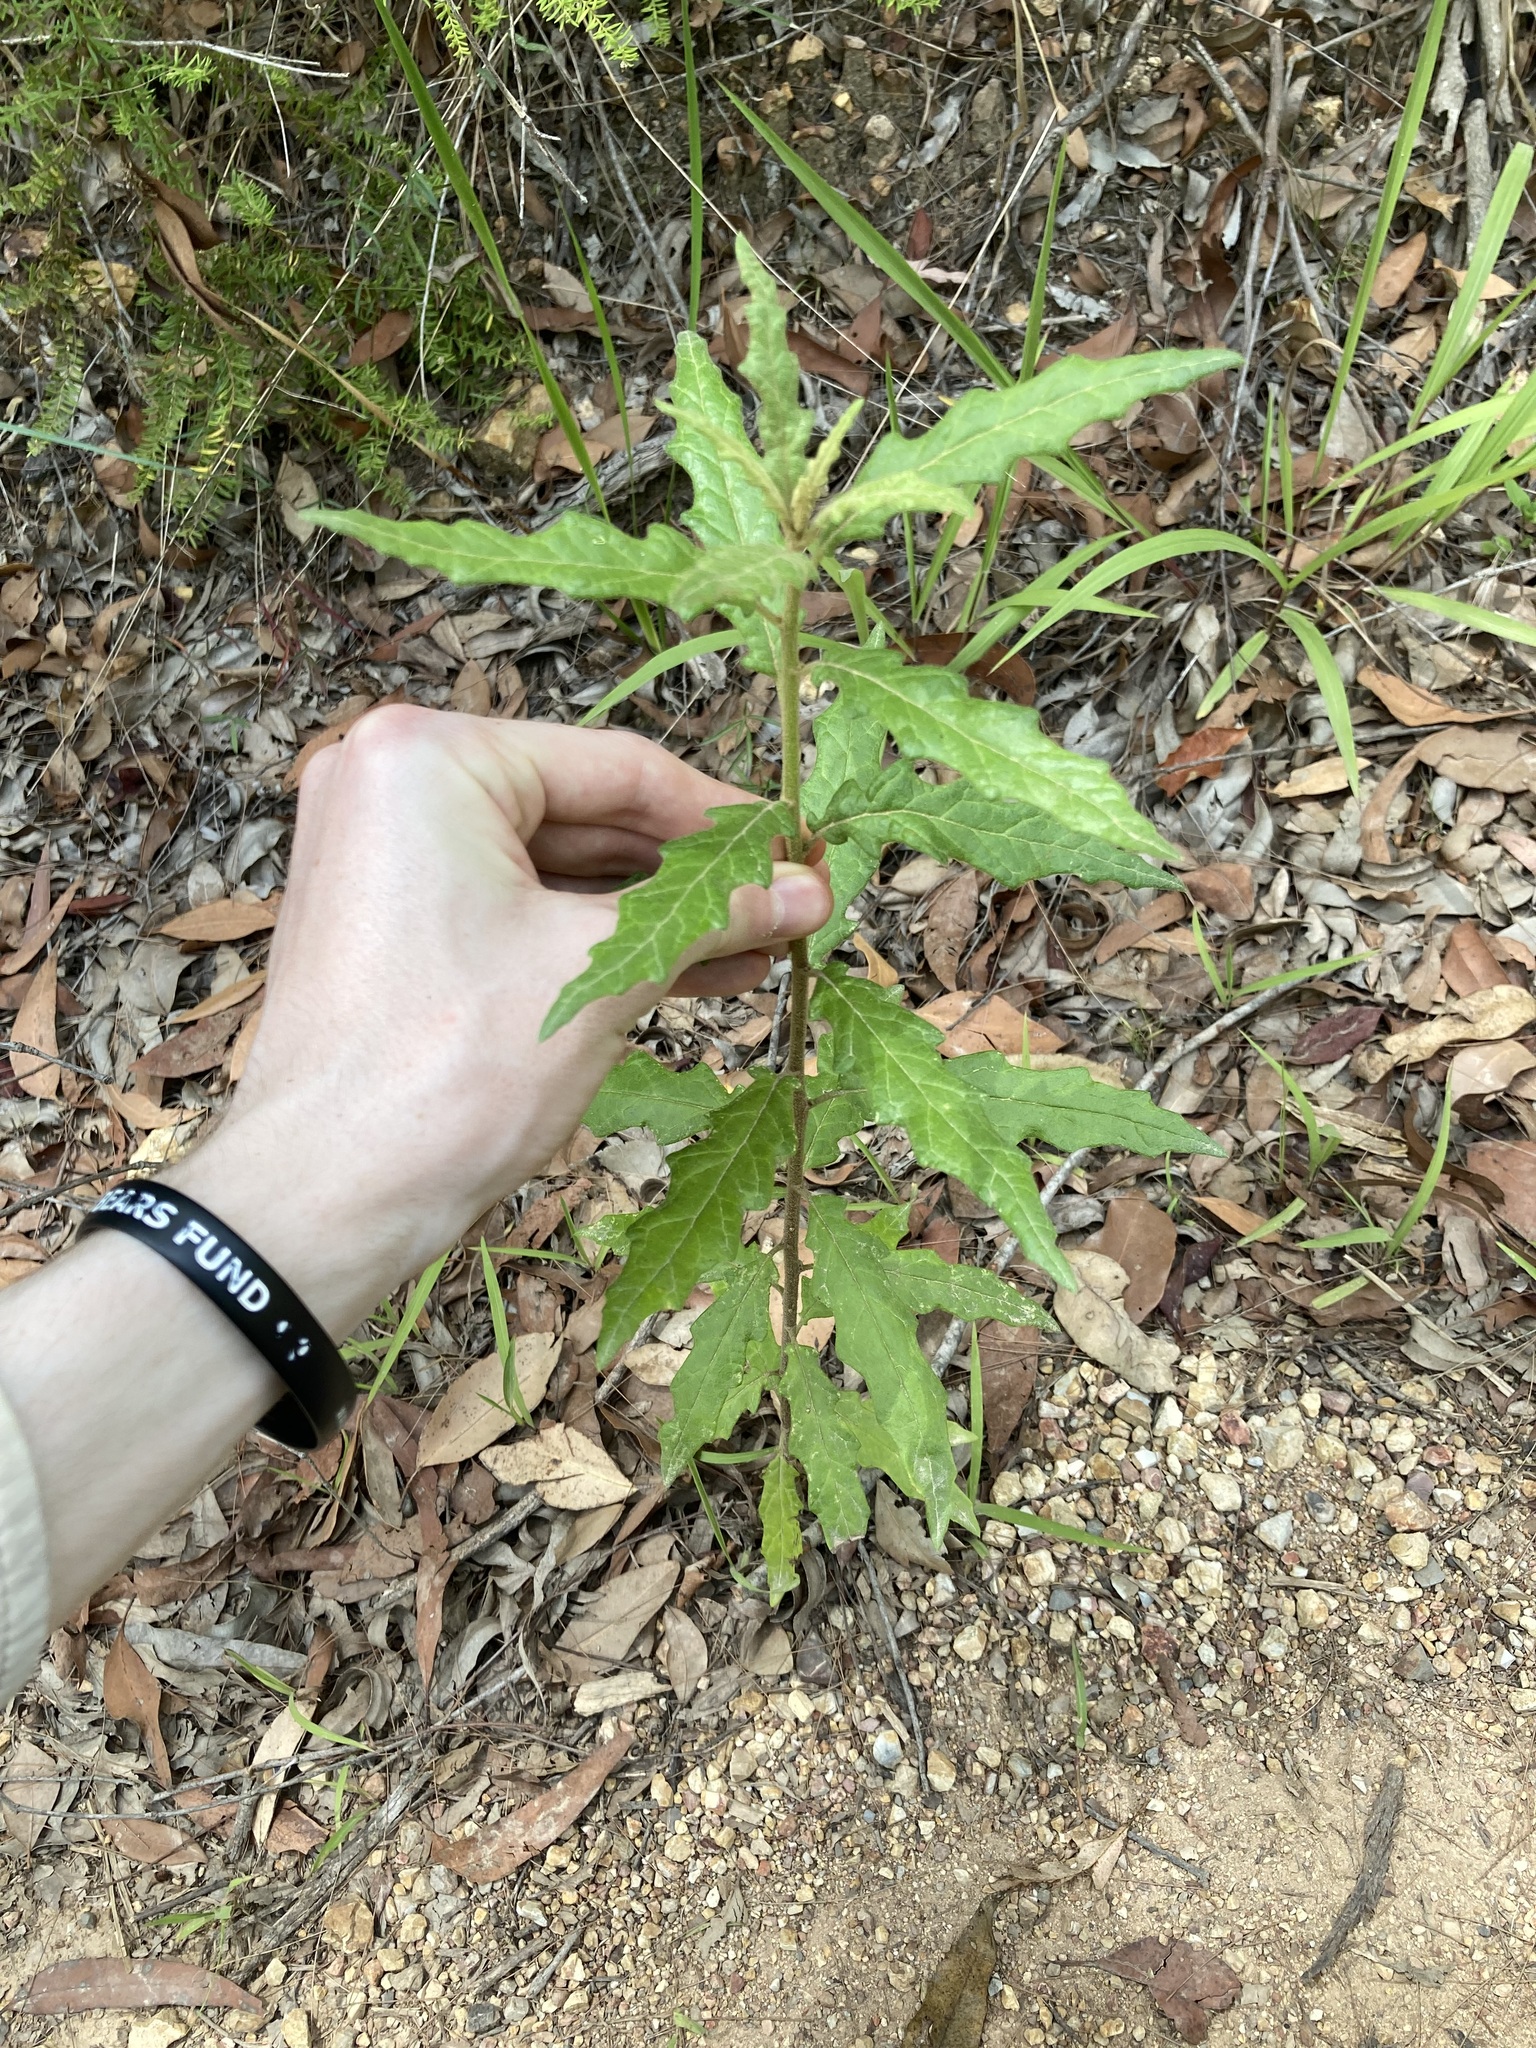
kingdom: Plantae
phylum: Tracheophyta
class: Magnoliopsida
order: Asterales
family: Asteraceae
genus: Olearia
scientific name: Olearia nernstii
